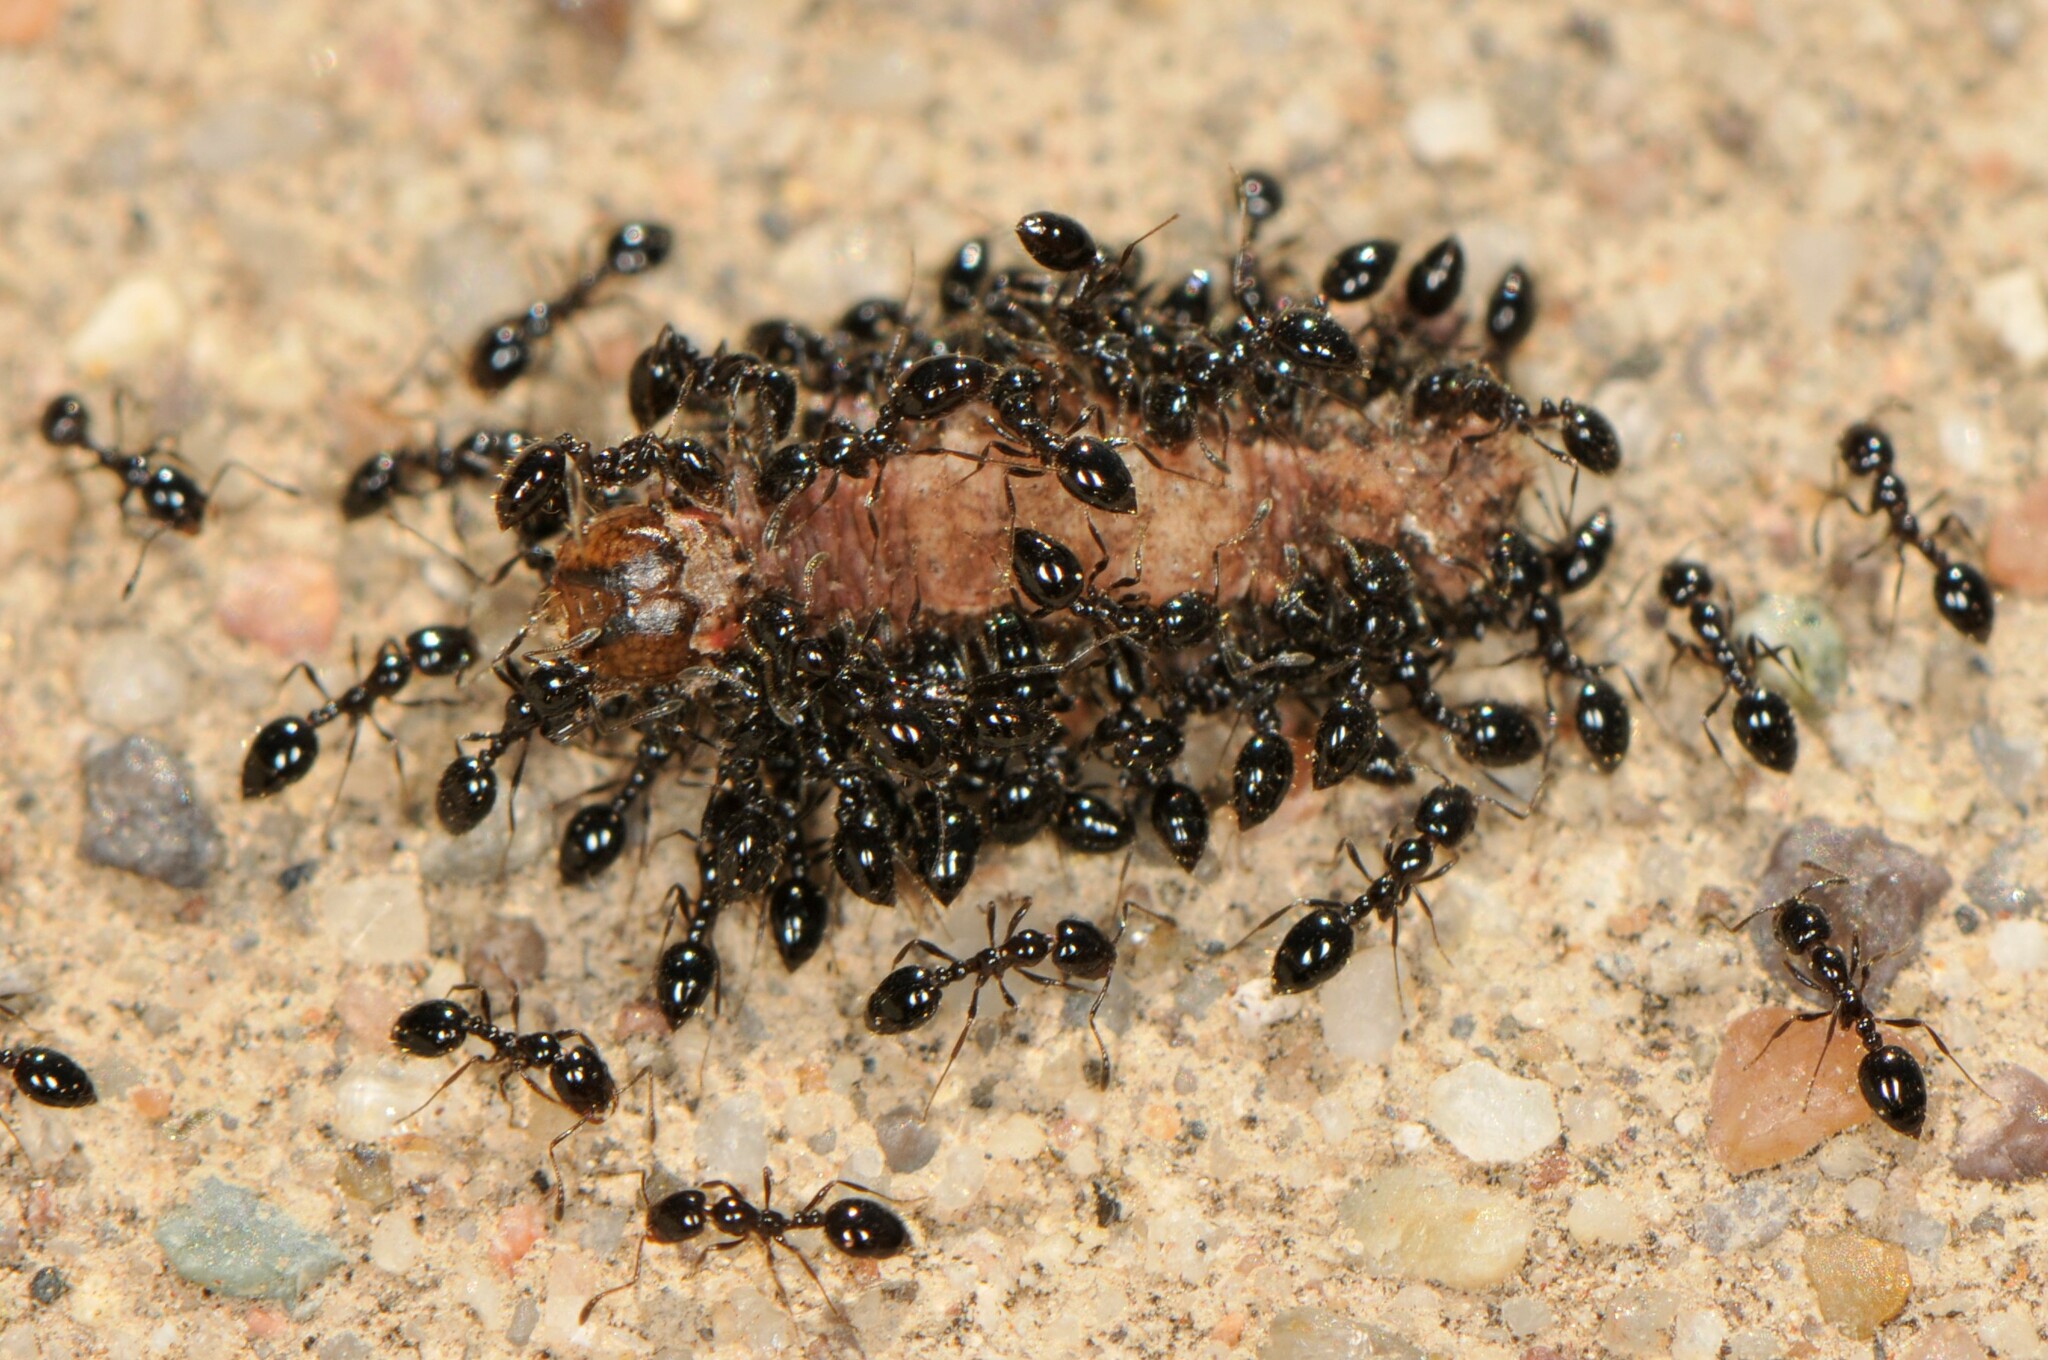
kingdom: Animalia
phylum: Arthropoda
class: Insecta
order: Hymenoptera
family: Formicidae
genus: Monomorium
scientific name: Monomorium
